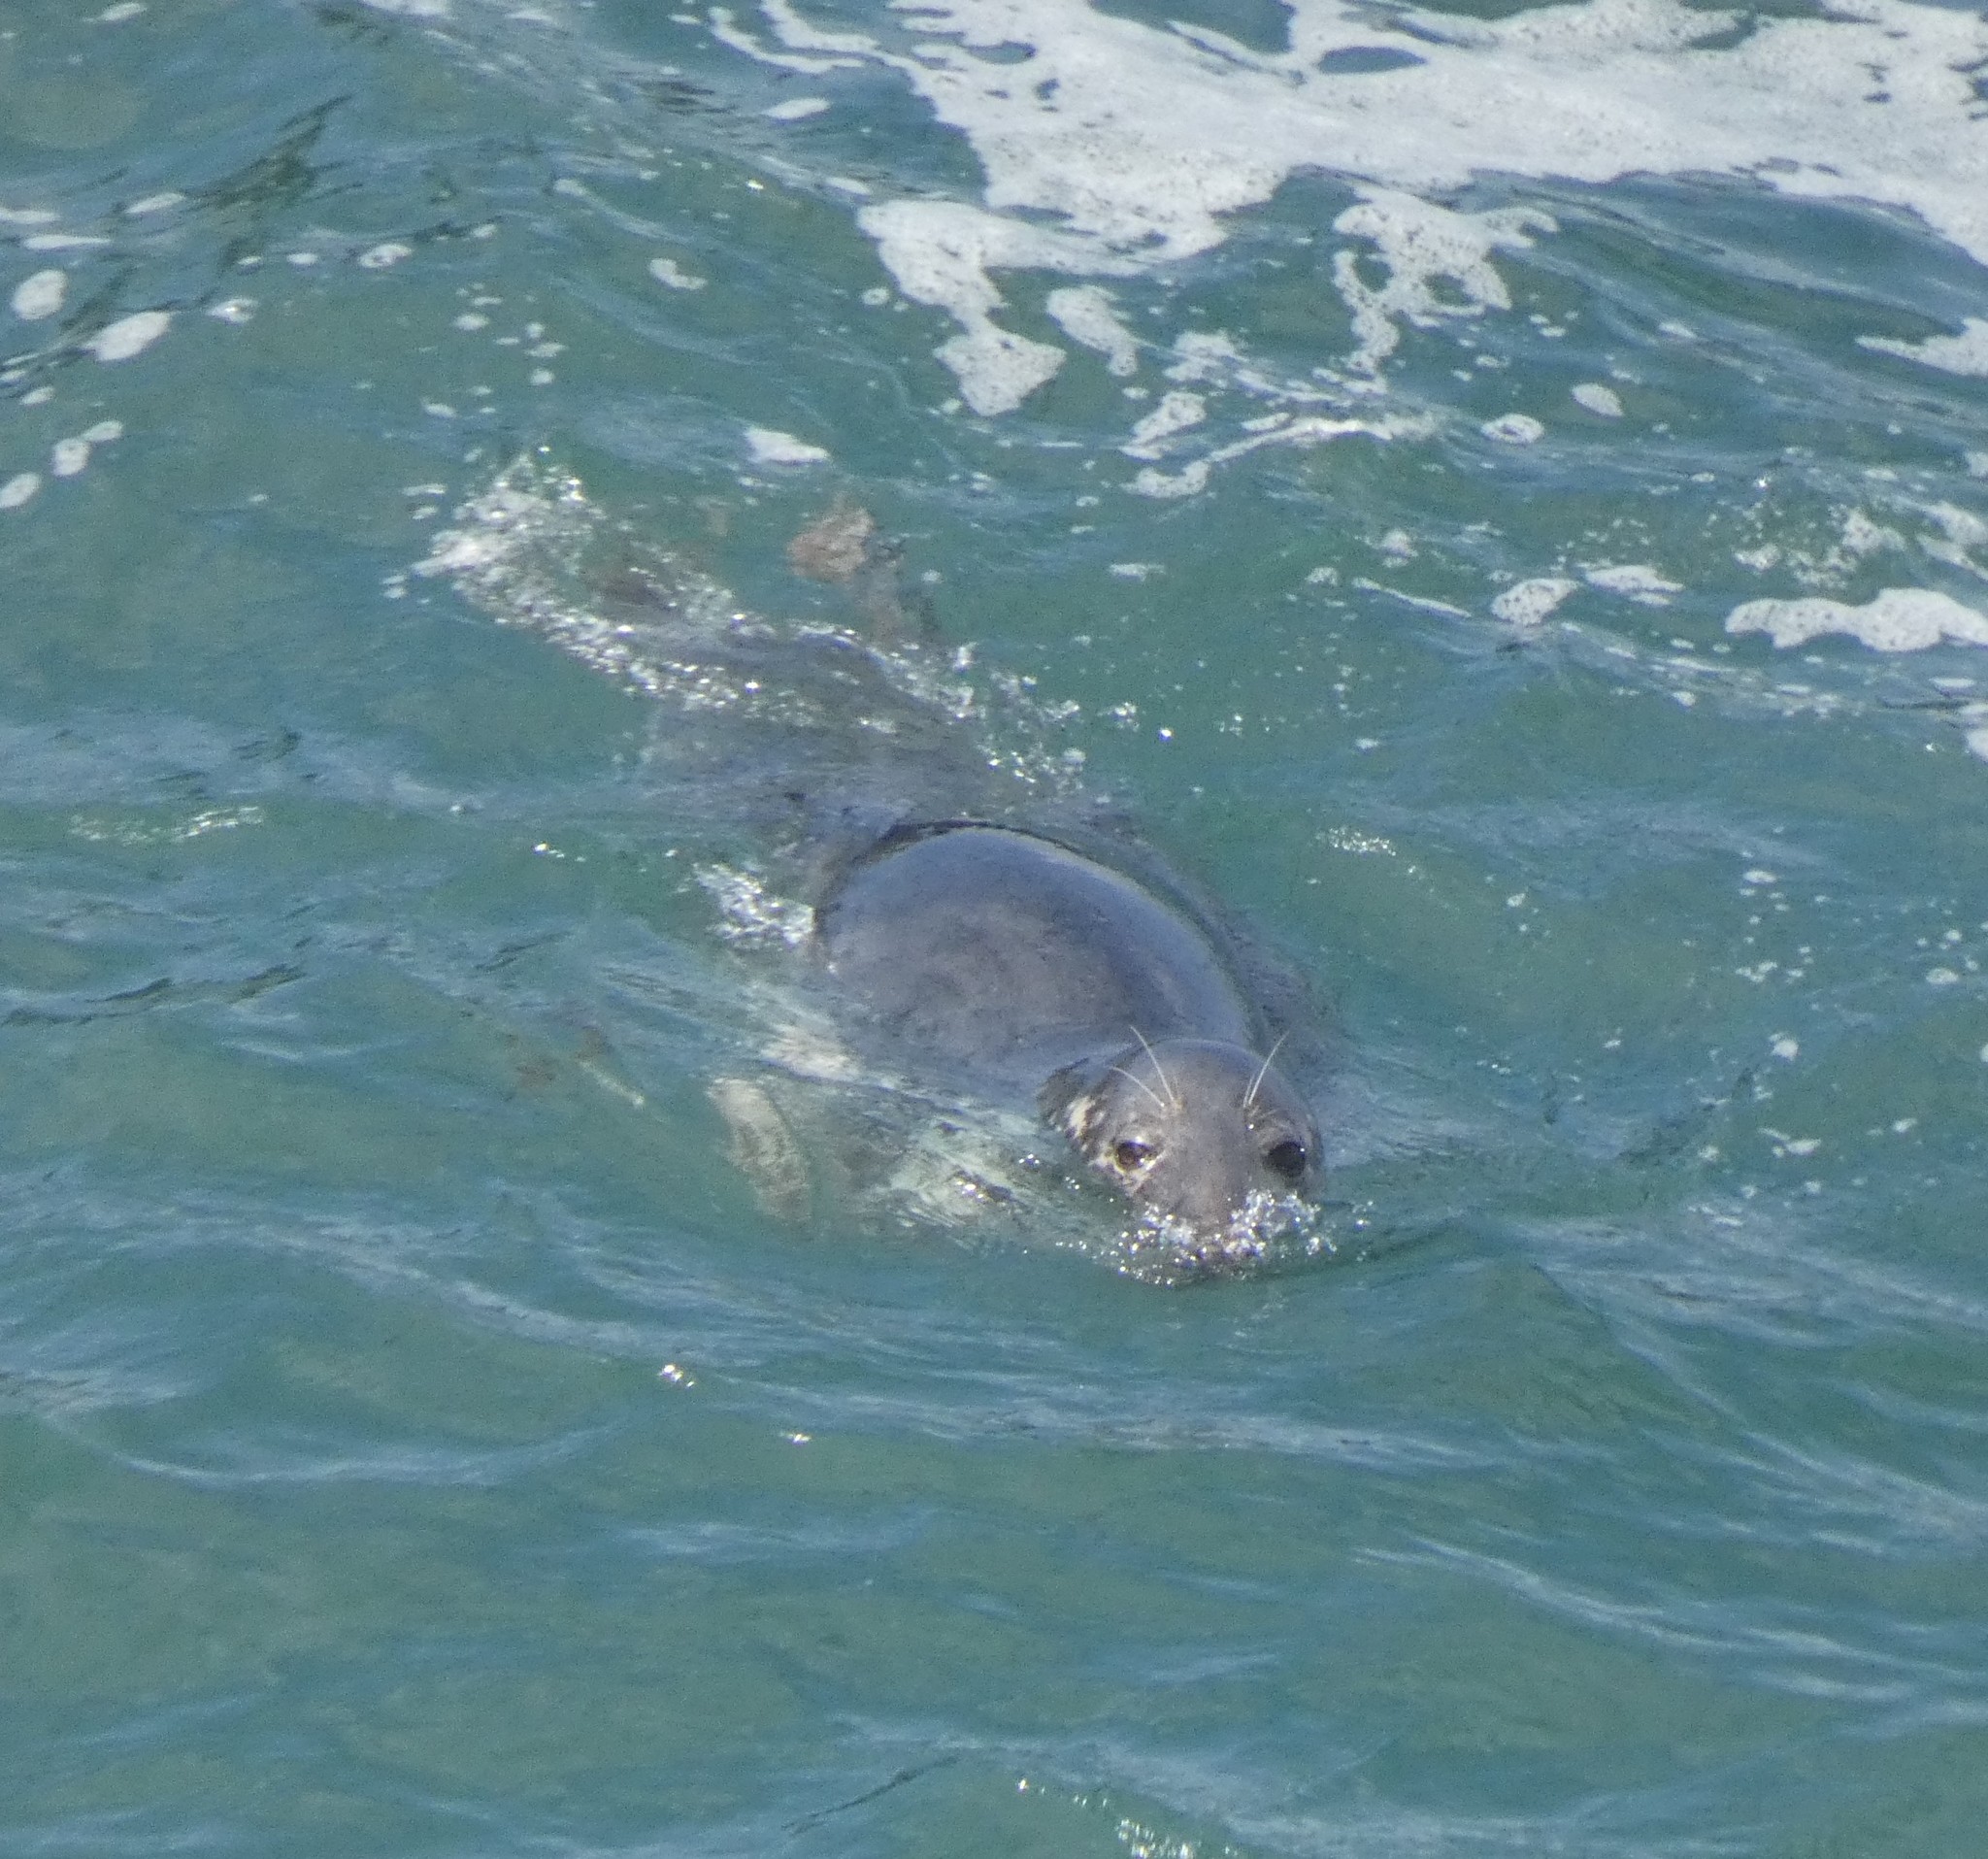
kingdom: Animalia
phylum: Chordata
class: Mammalia
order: Carnivora
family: Phocidae
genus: Halichoerus
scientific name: Halichoerus grypus
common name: Grey seal
